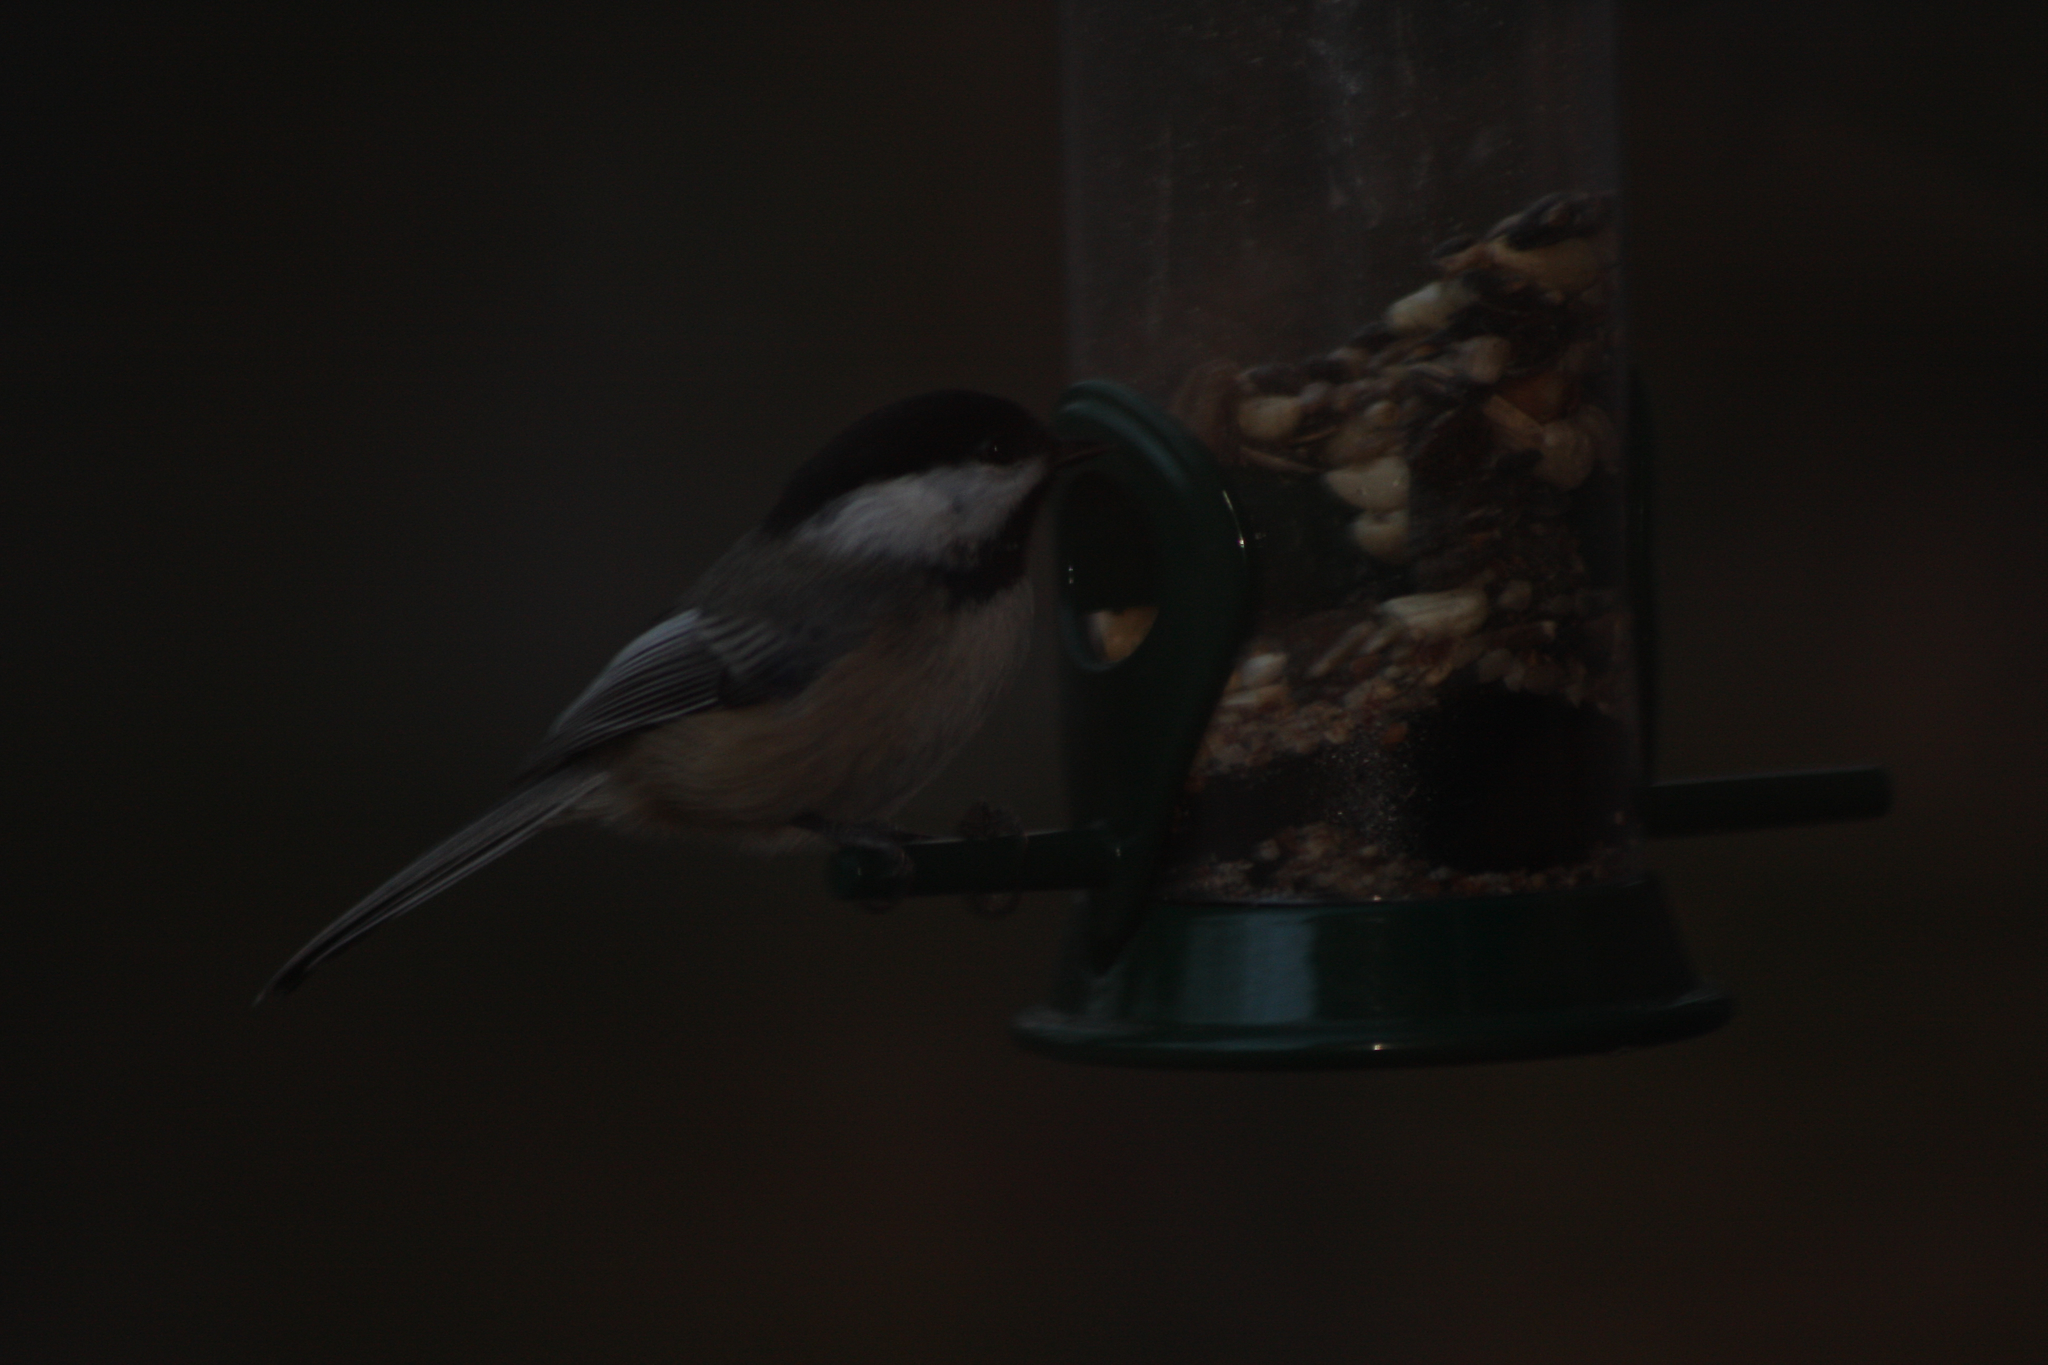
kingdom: Animalia
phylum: Chordata
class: Aves
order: Passeriformes
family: Paridae
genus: Poecile
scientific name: Poecile atricapillus
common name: Black-capped chickadee
